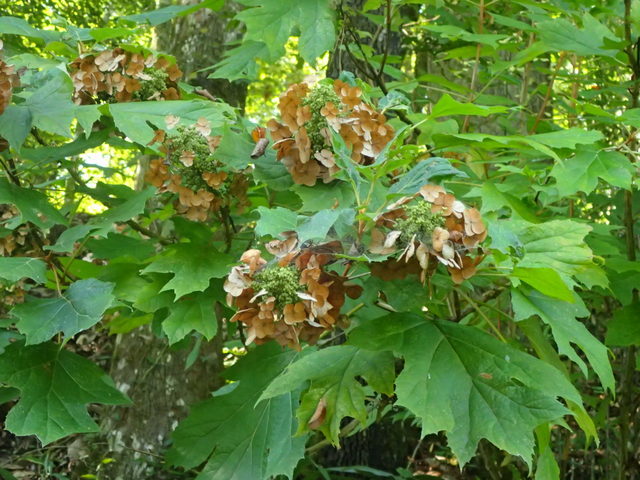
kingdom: Plantae
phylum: Tracheophyta
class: Magnoliopsida
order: Cornales
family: Hydrangeaceae
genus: Hydrangea
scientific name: Hydrangea quercifolia
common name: Oak-leaf hydrangea
